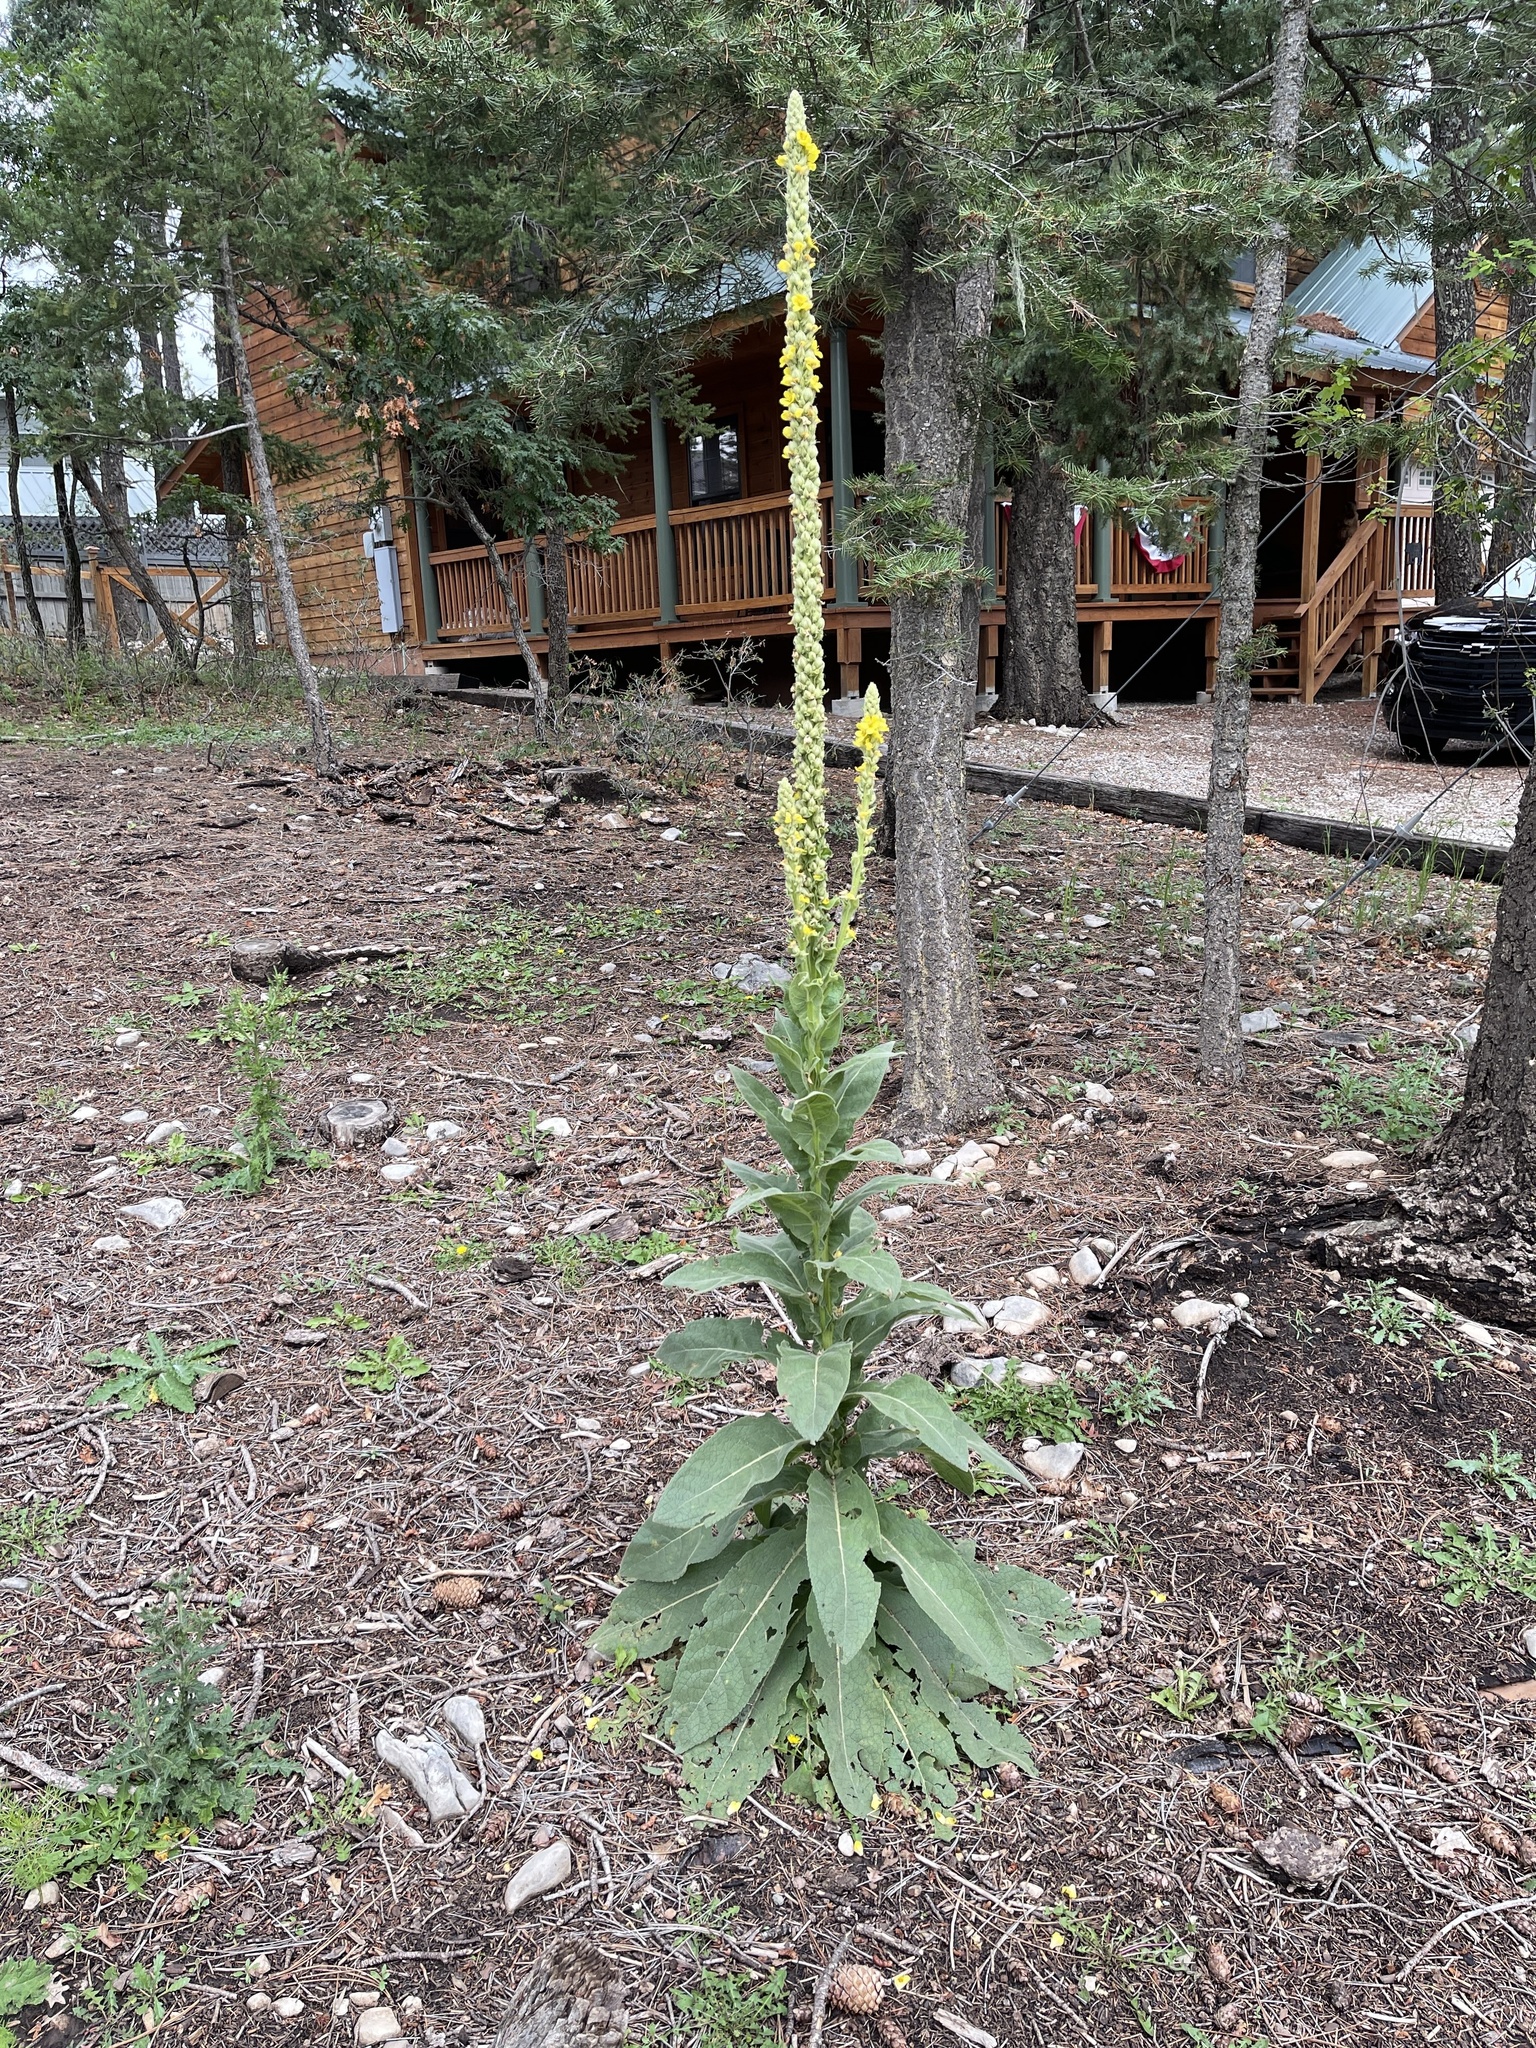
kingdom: Plantae
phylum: Tracheophyta
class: Magnoliopsida
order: Lamiales
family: Scrophulariaceae
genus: Verbascum
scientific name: Verbascum thapsus
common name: Common mullein
